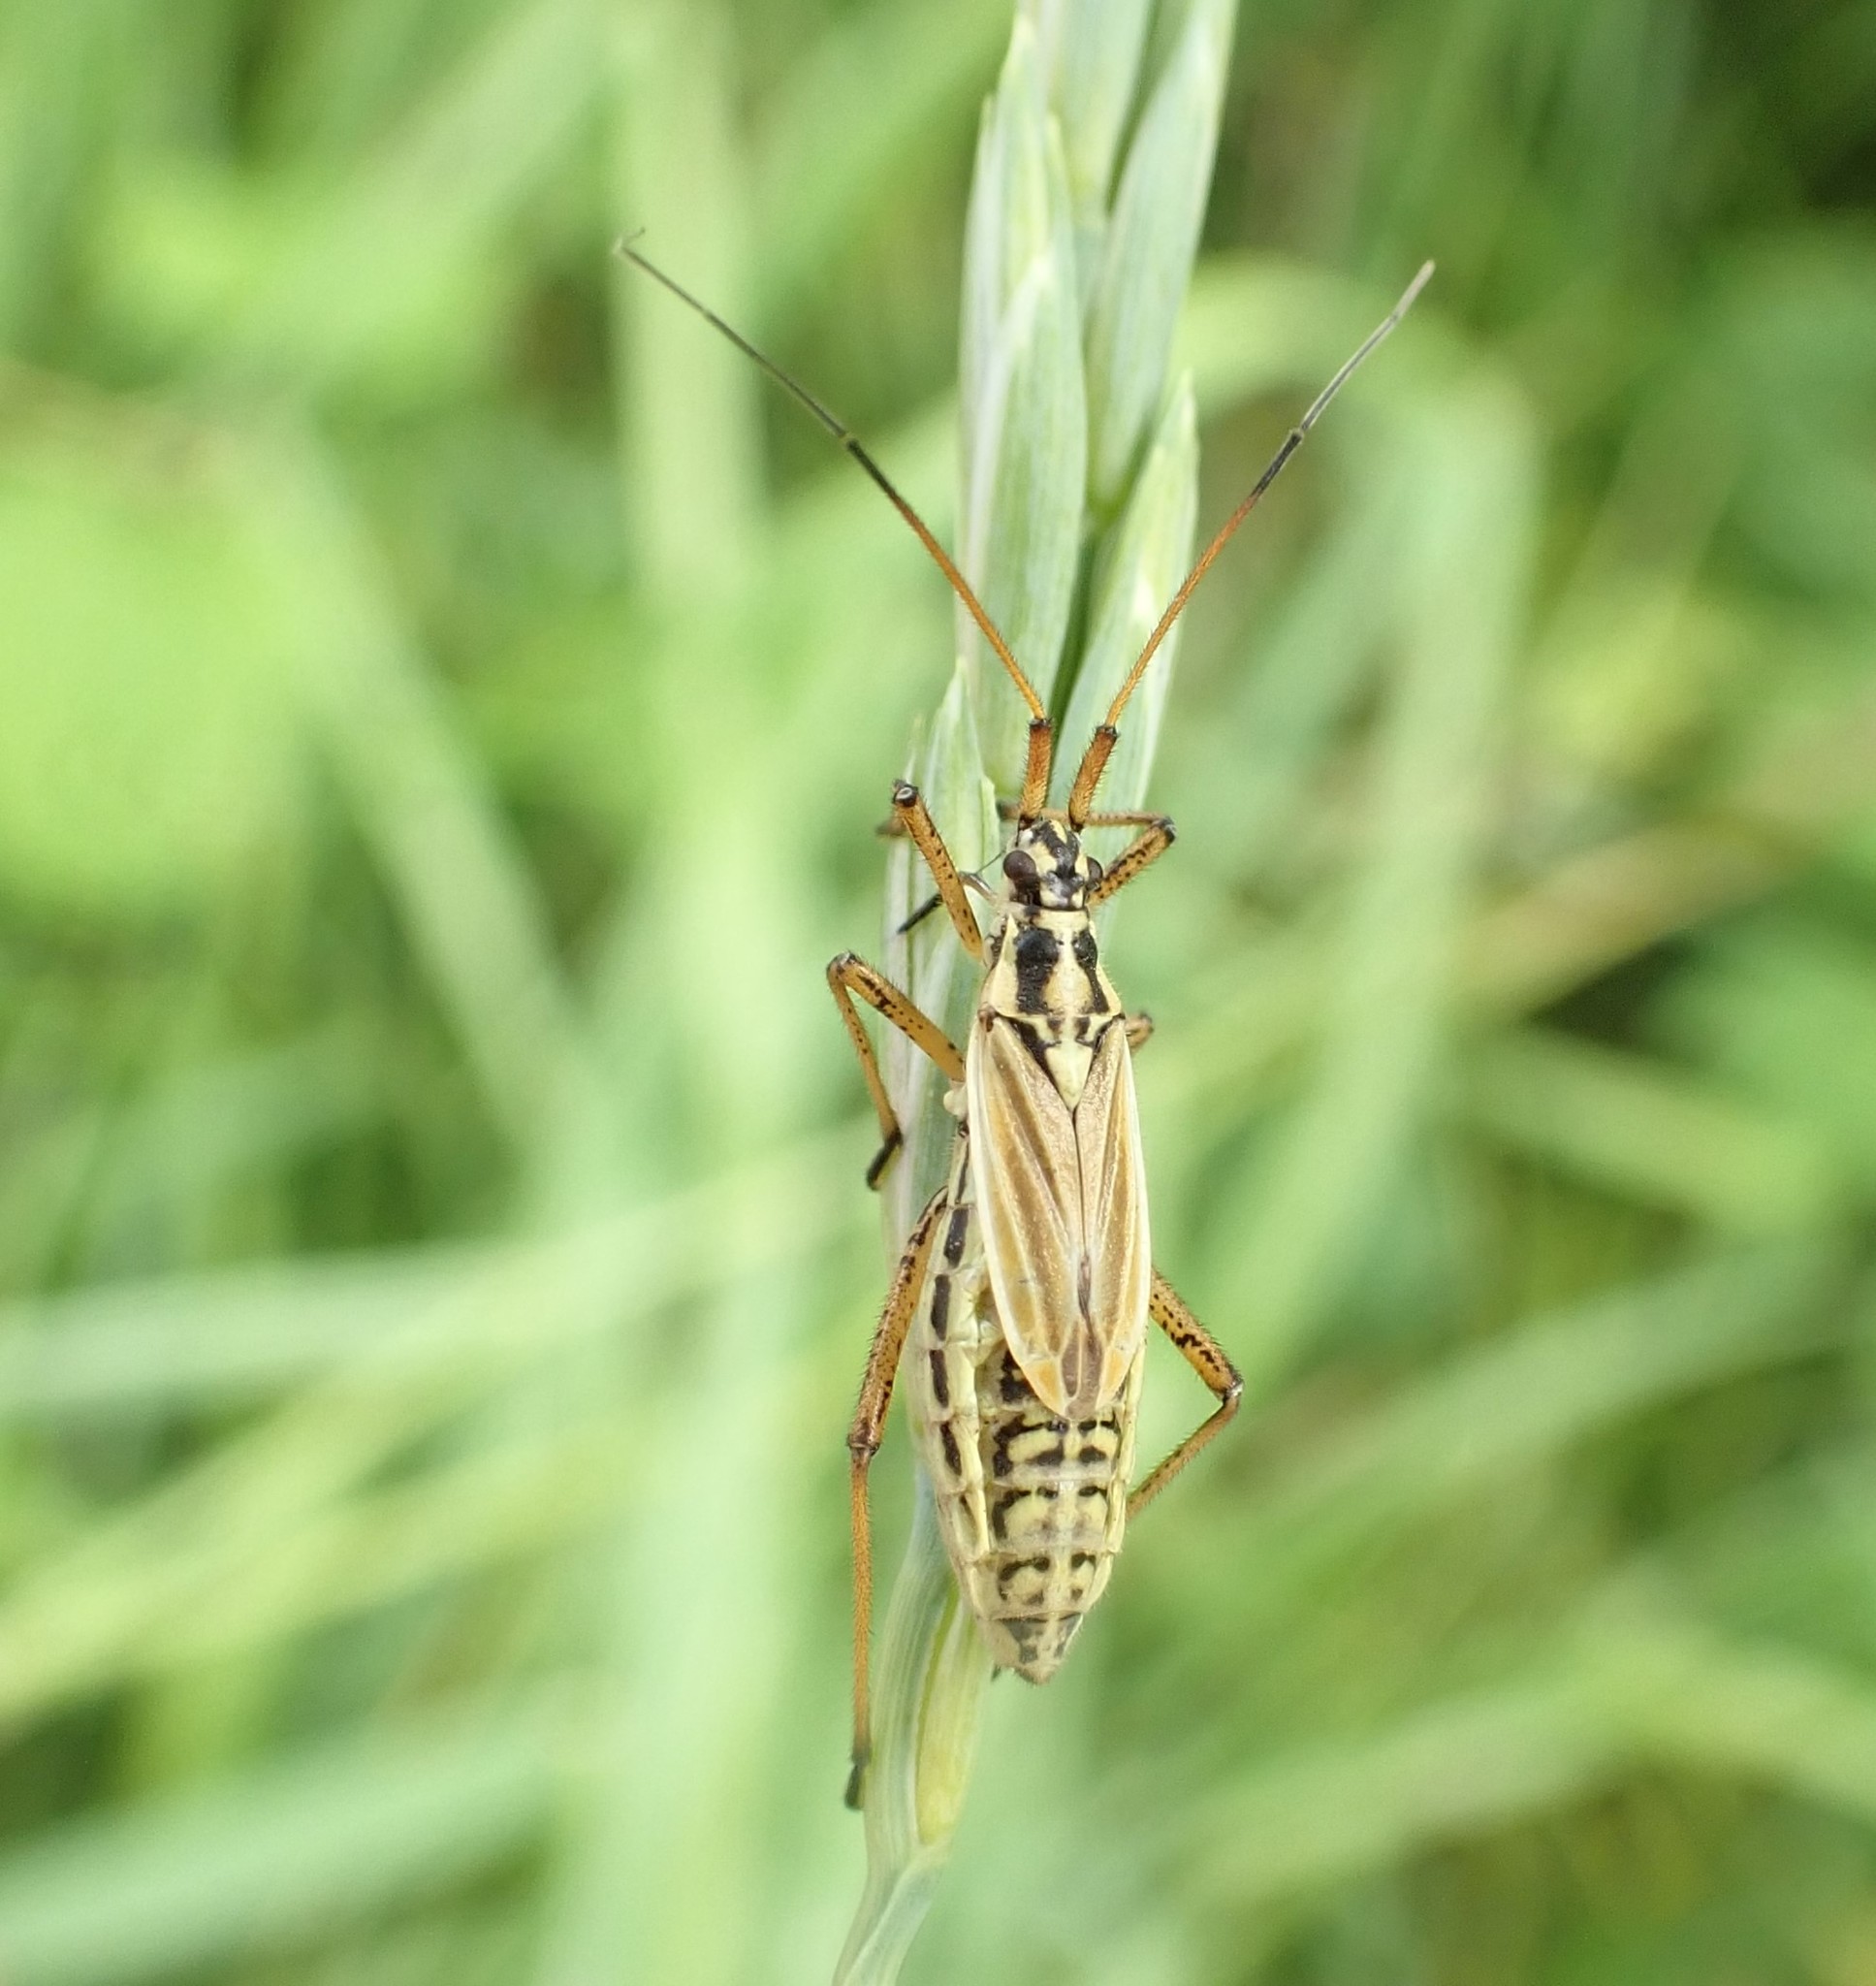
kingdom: Animalia
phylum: Arthropoda
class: Insecta
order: Hemiptera
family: Miridae
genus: Leptopterna
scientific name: Leptopterna dolabrata
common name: Meadow plant bug
